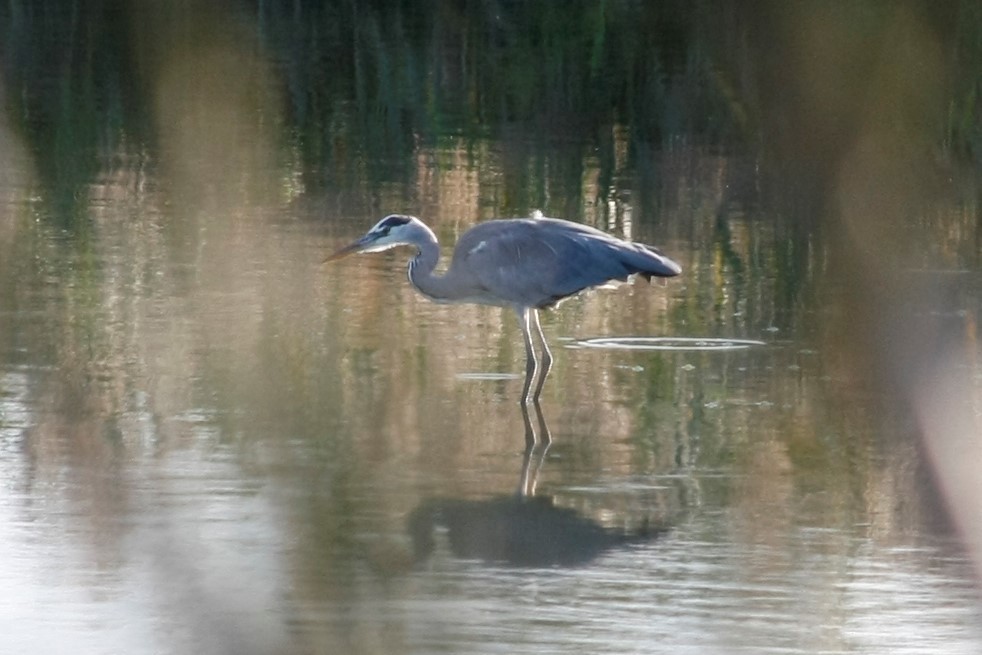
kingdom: Animalia
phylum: Chordata
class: Aves
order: Pelecaniformes
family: Ardeidae
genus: Ardea
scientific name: Ardea cinerea
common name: Grey heron
